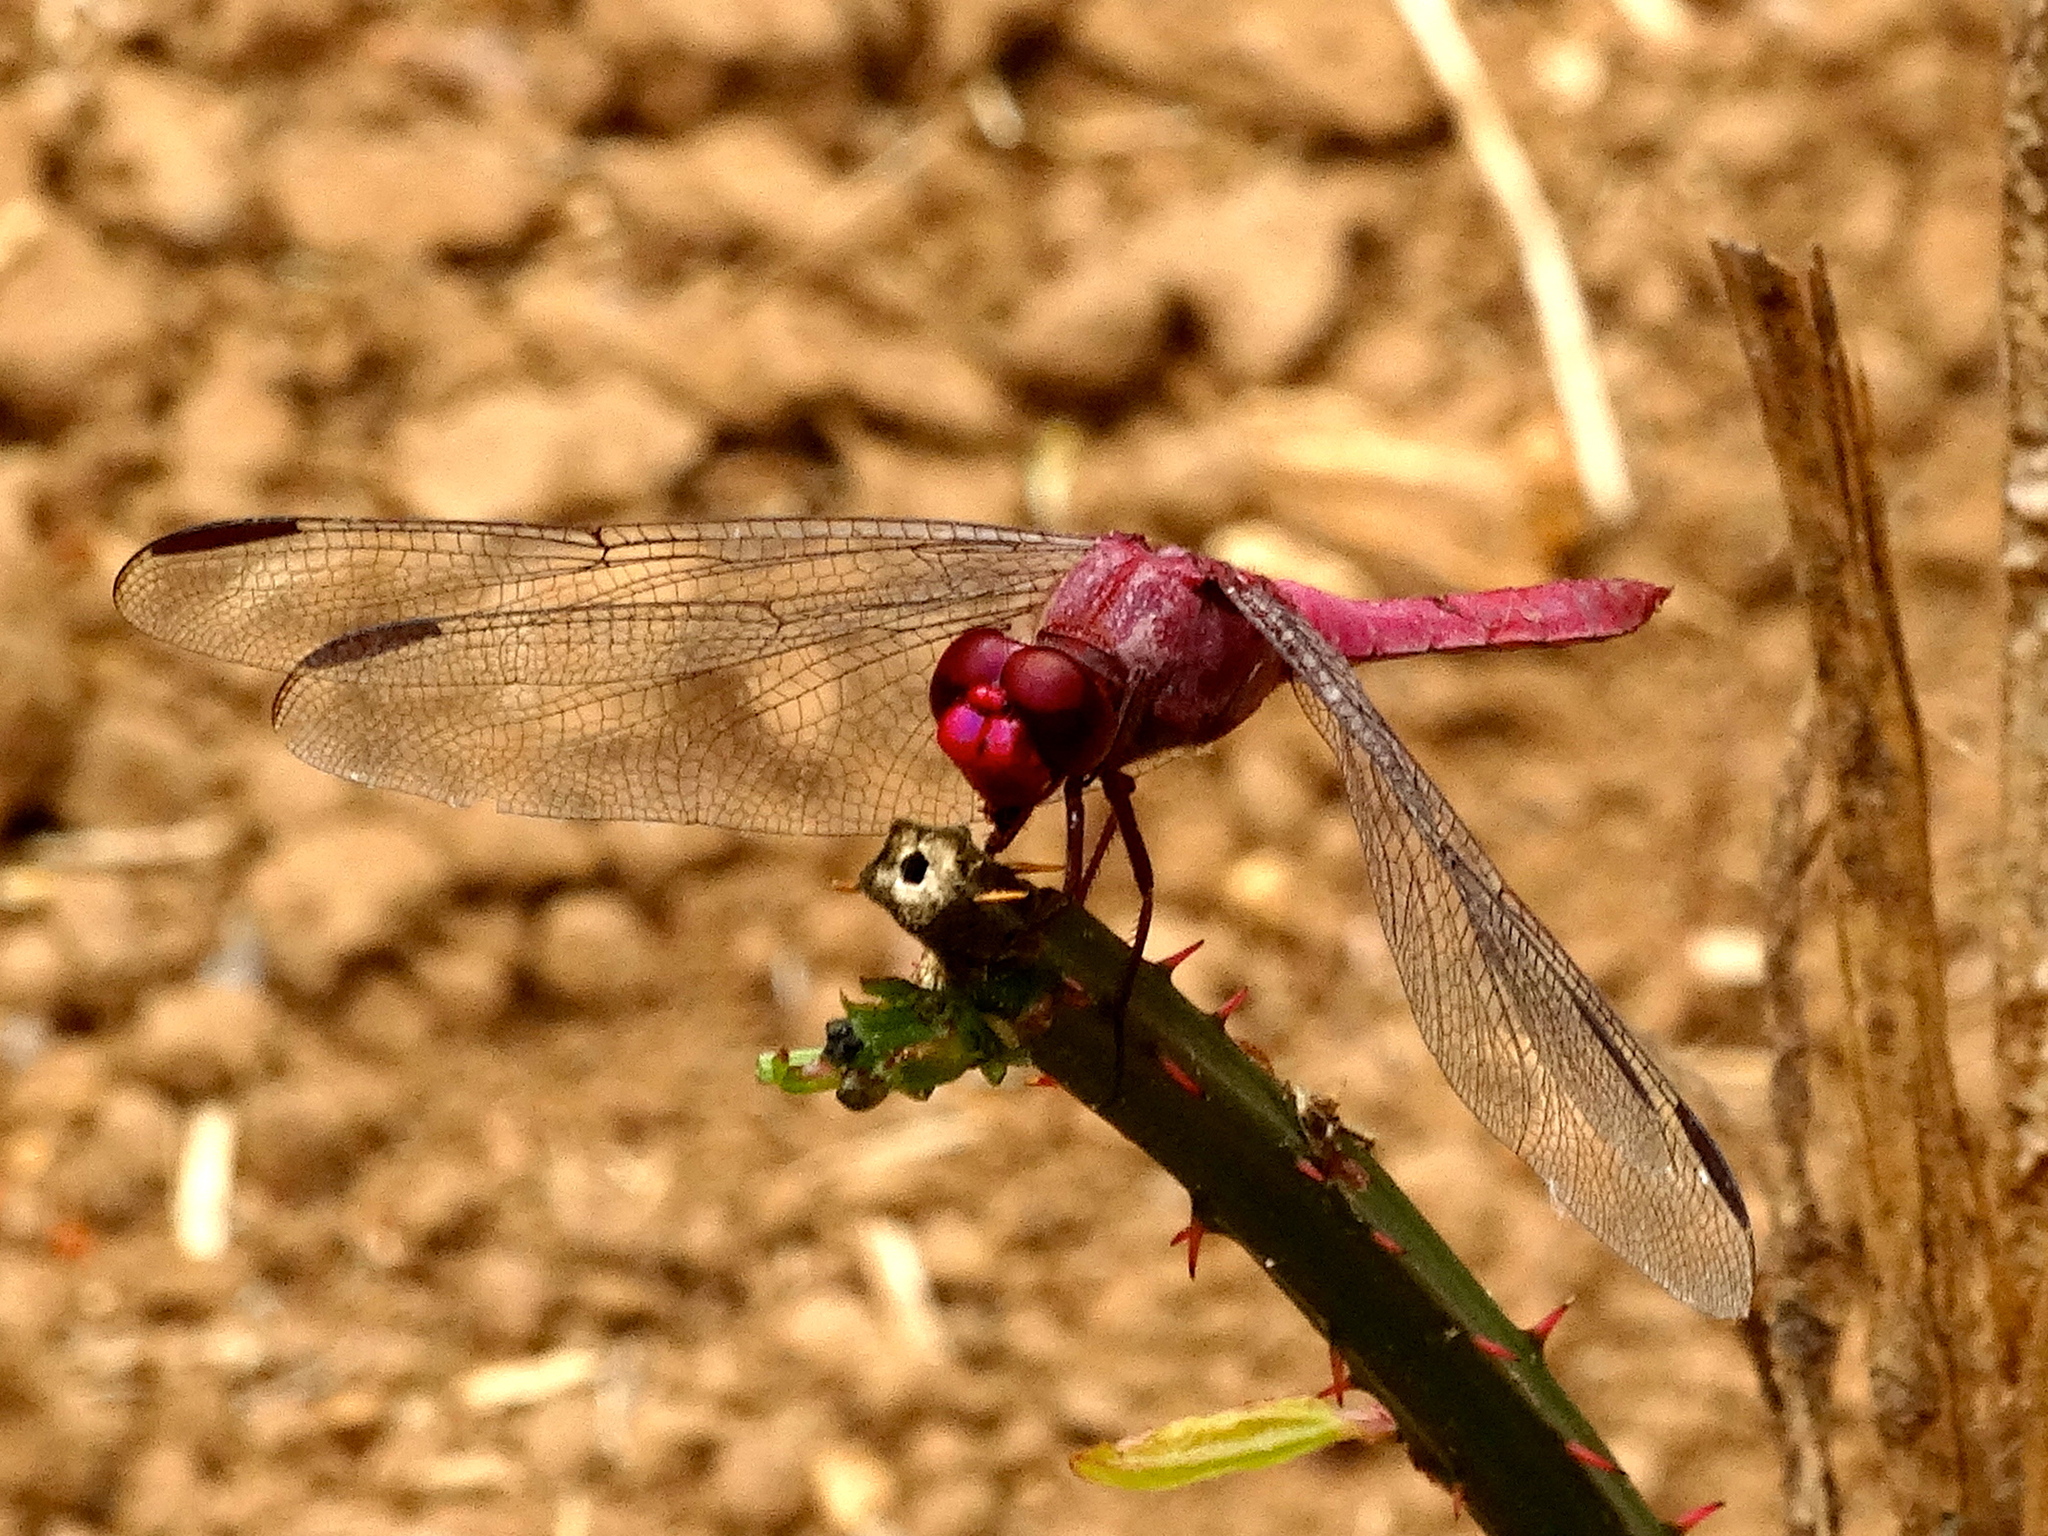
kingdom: Animalia
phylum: Arthropoda
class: Insecta
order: Odonata
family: Libellulidae
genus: Orthemis
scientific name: Orthemis discolor
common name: Carmine skimmer
